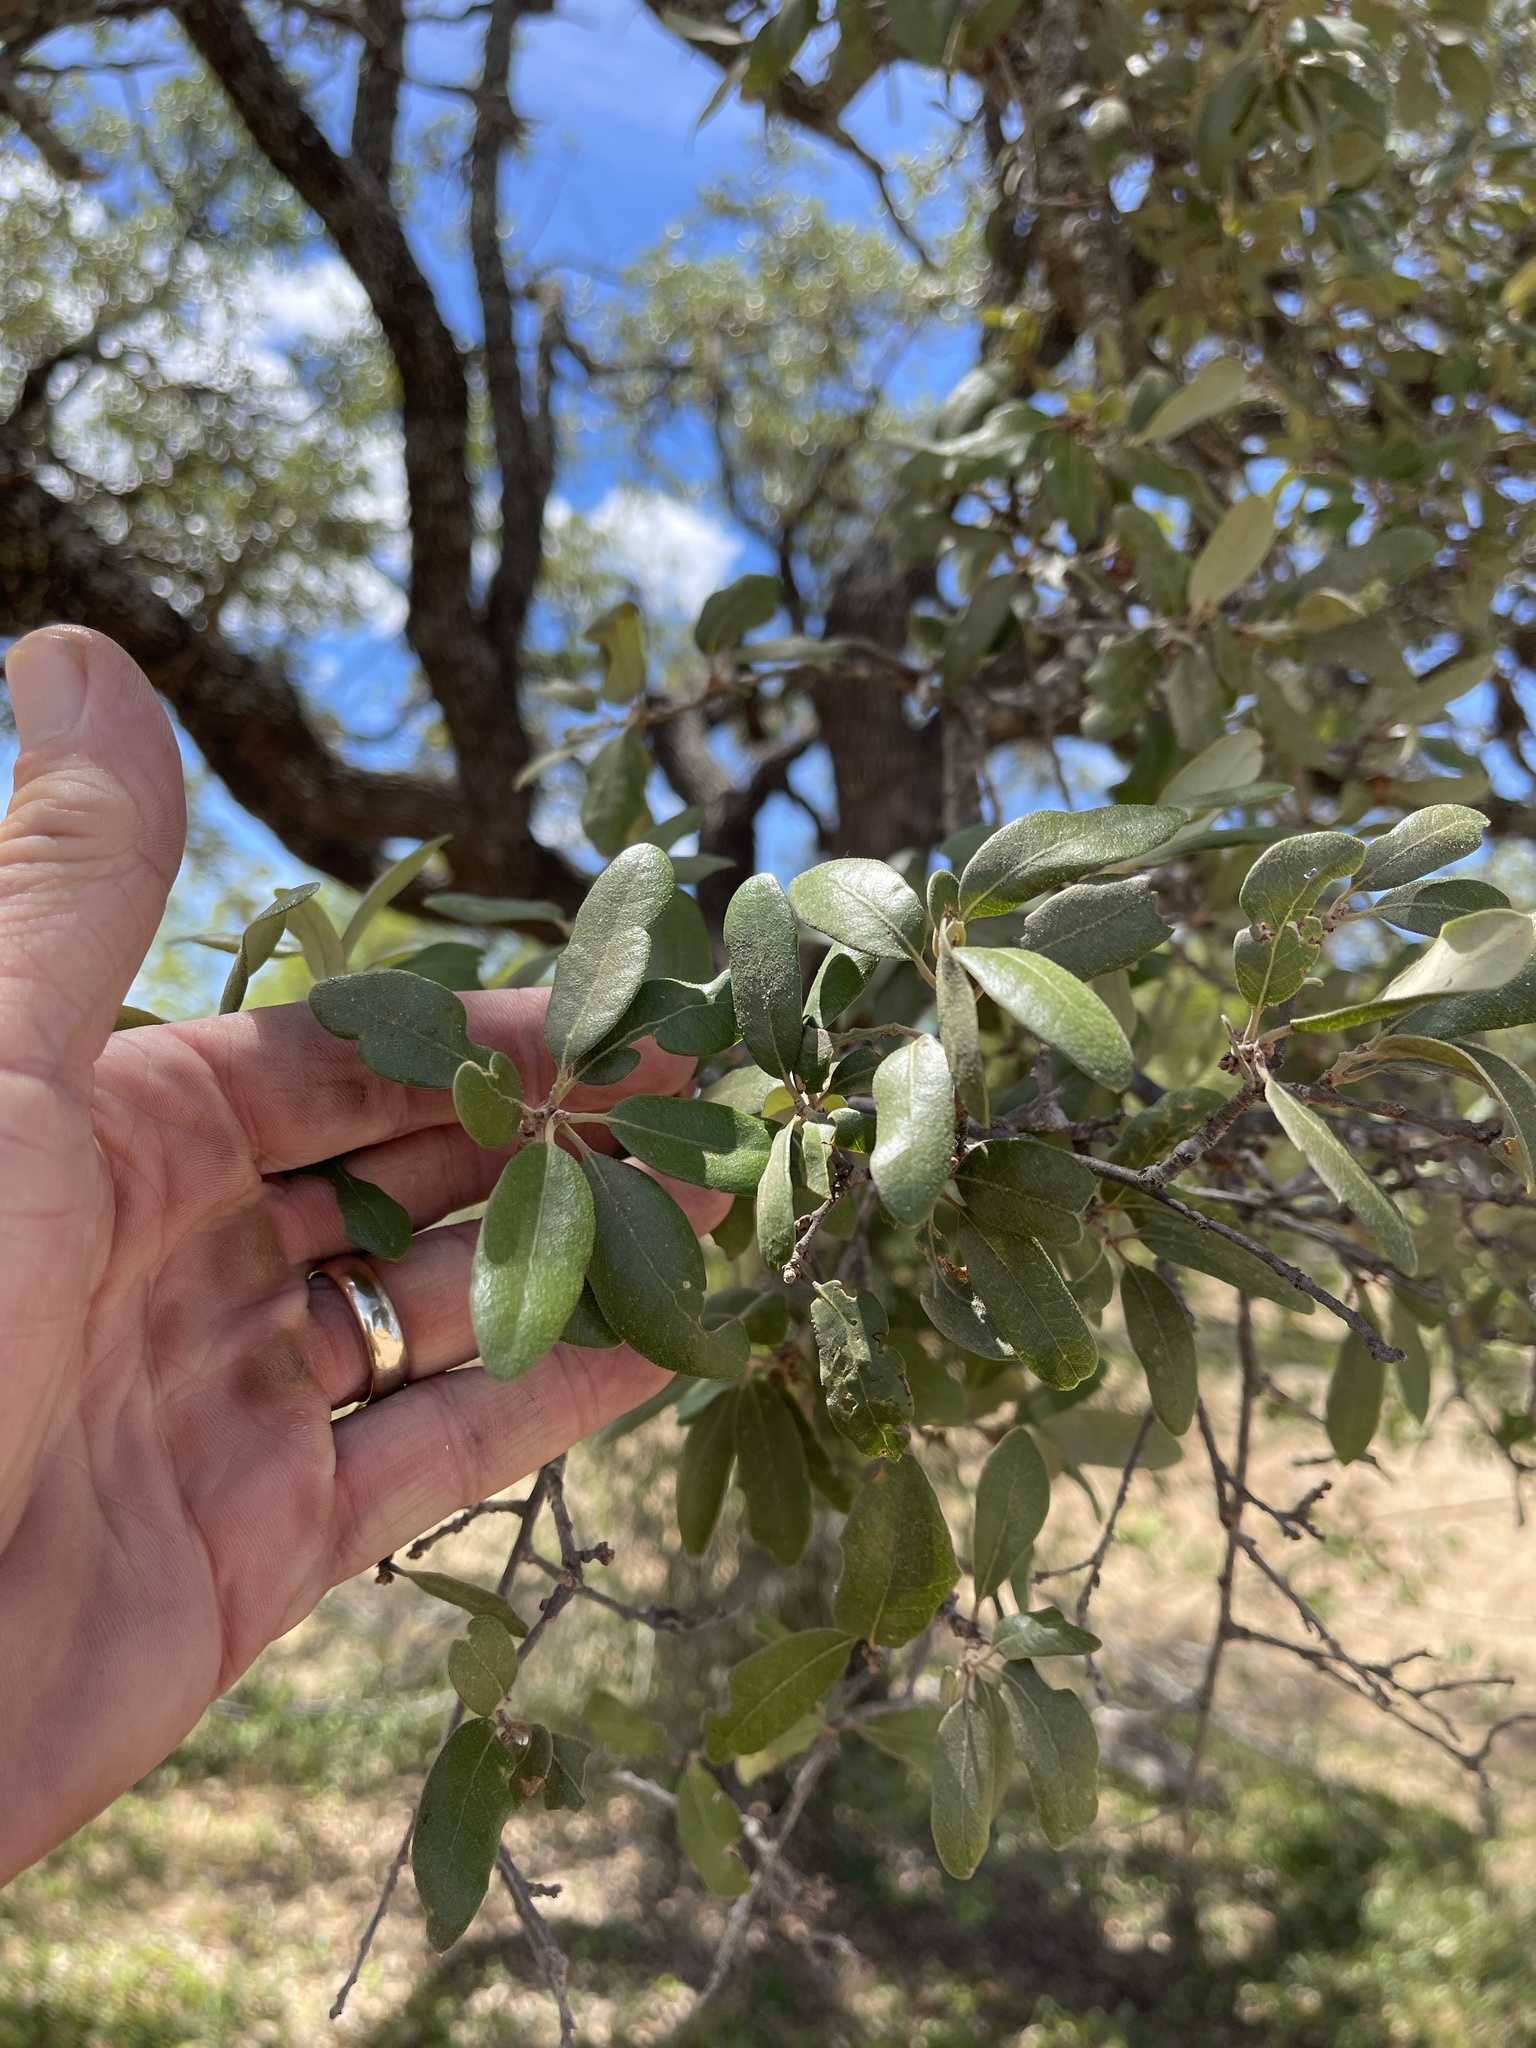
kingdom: Plantae
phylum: Tracheophyta
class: Magnoliopsida
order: Fagales
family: Fagaceae
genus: Quercus
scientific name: Quercus fusiformis
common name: Texas live oak
